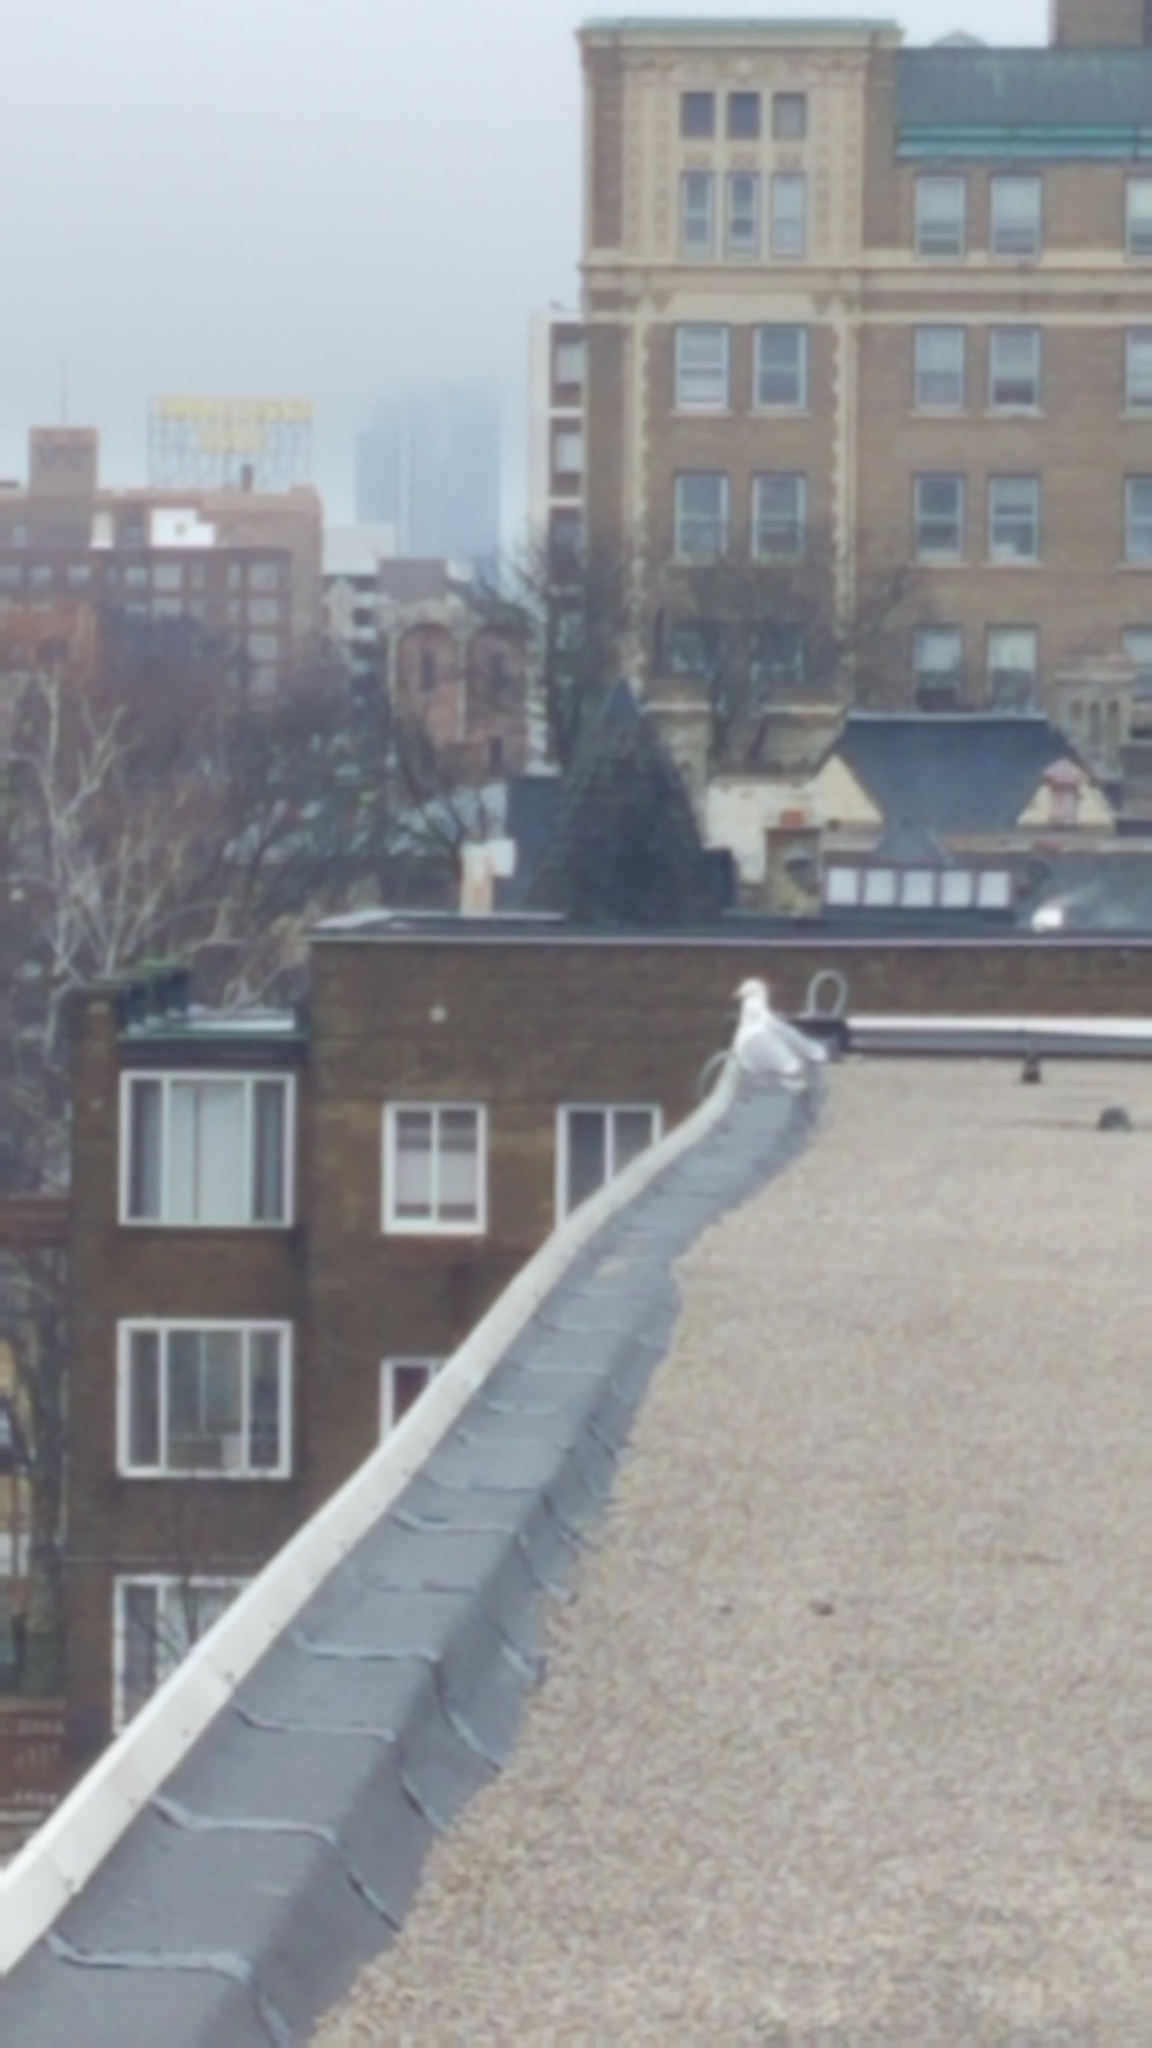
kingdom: Animalia
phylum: Chordata
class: Aves
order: Charadriiformes
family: Laridae
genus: Larus
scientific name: Larus argentatus
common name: Herring gull
